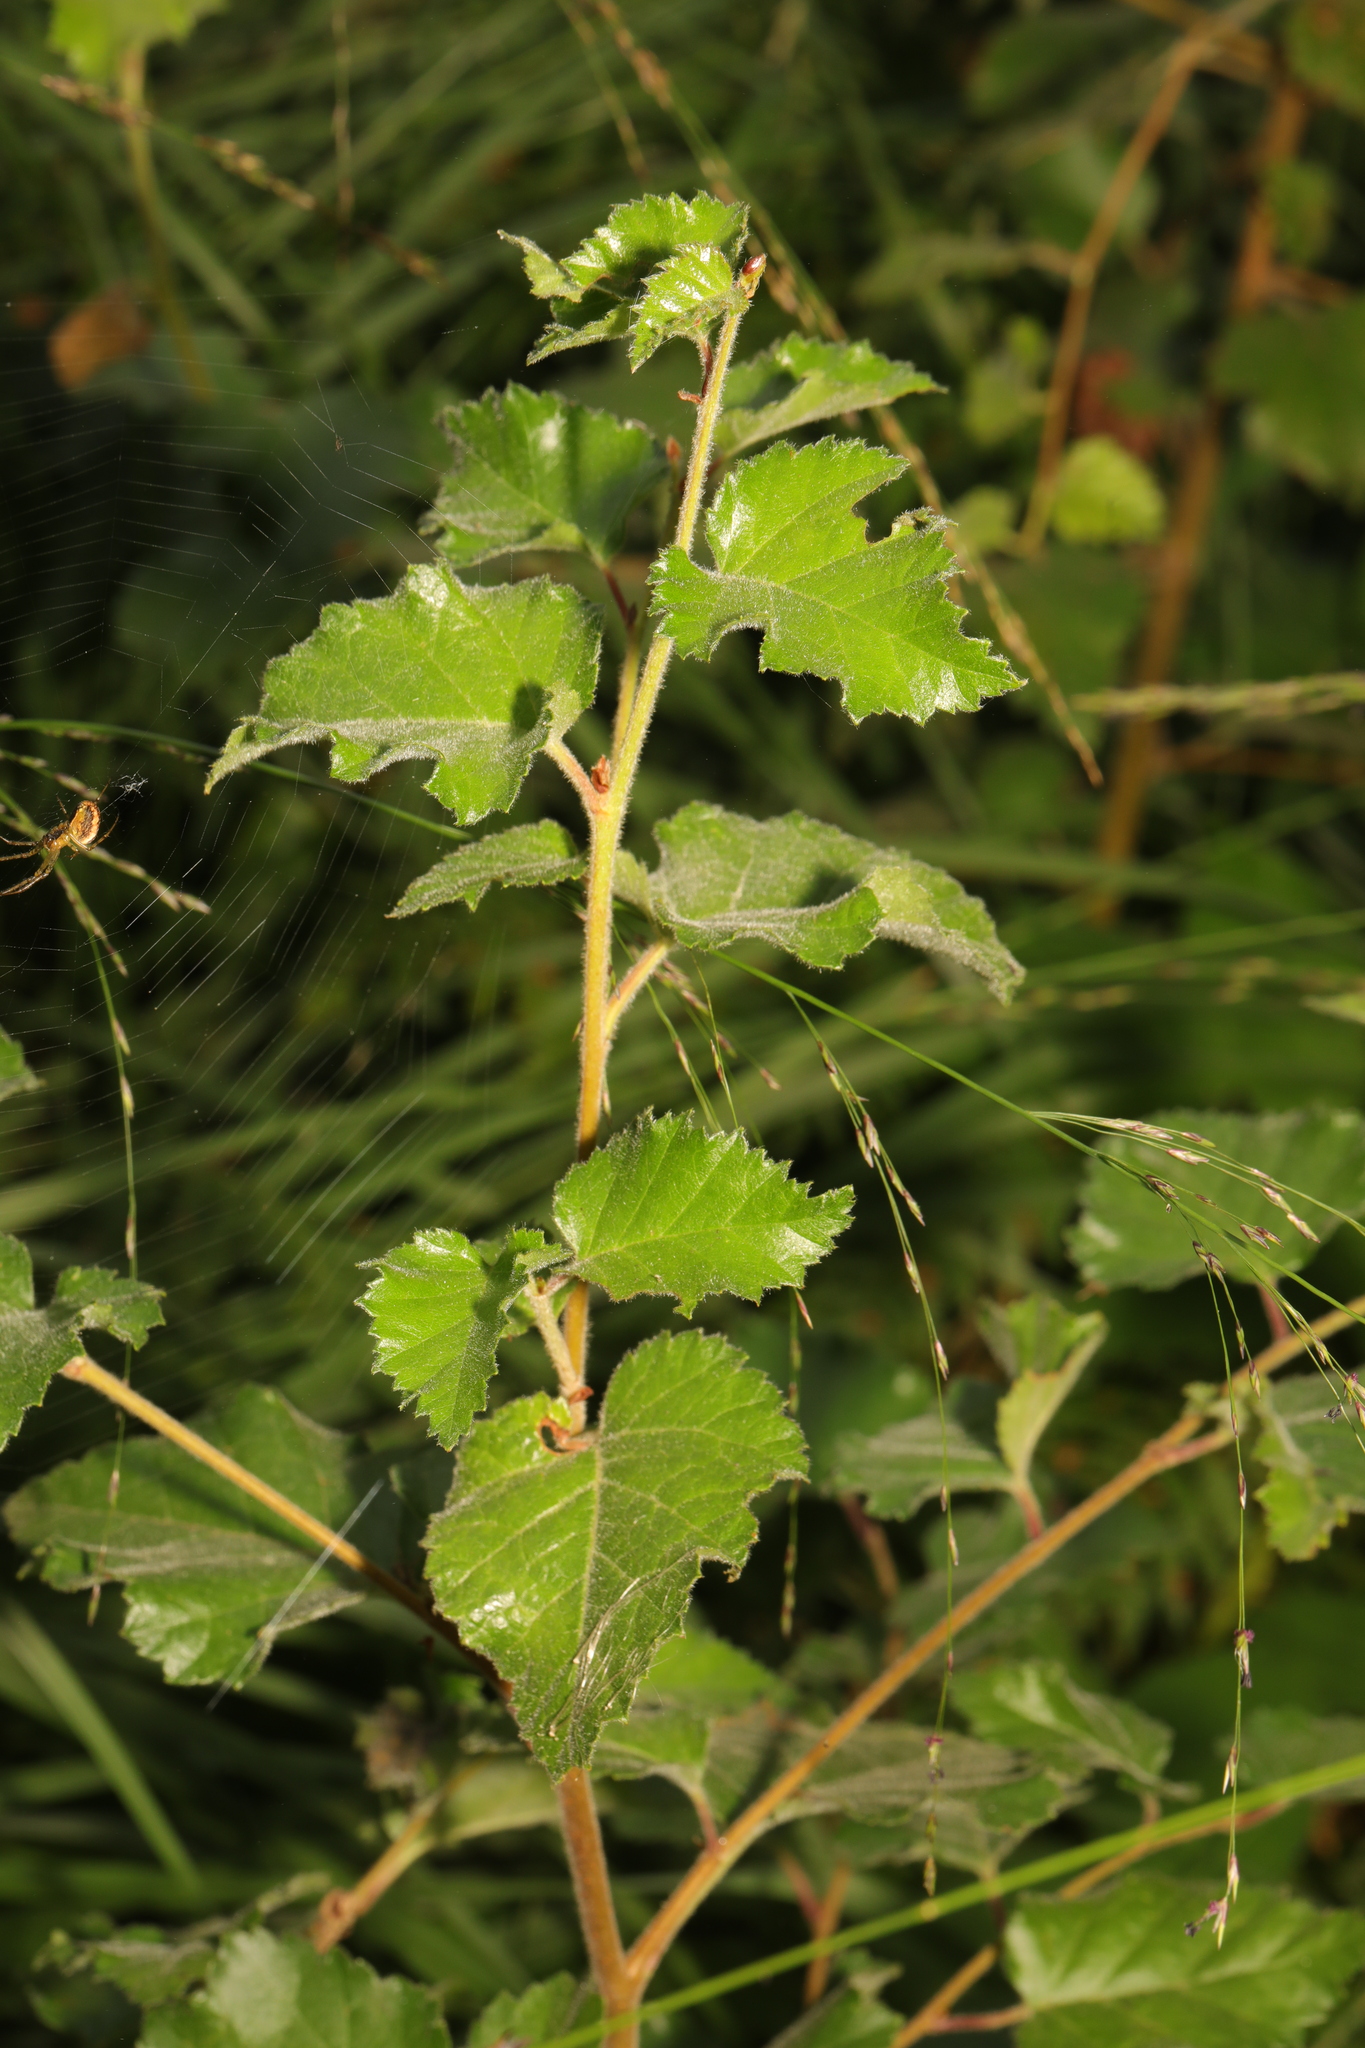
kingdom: Plantae
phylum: Tracheophyta
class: Magnoliopsida
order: Fagales
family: Betulaceae
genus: Betula
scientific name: Betula pubescens
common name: Downy birch
